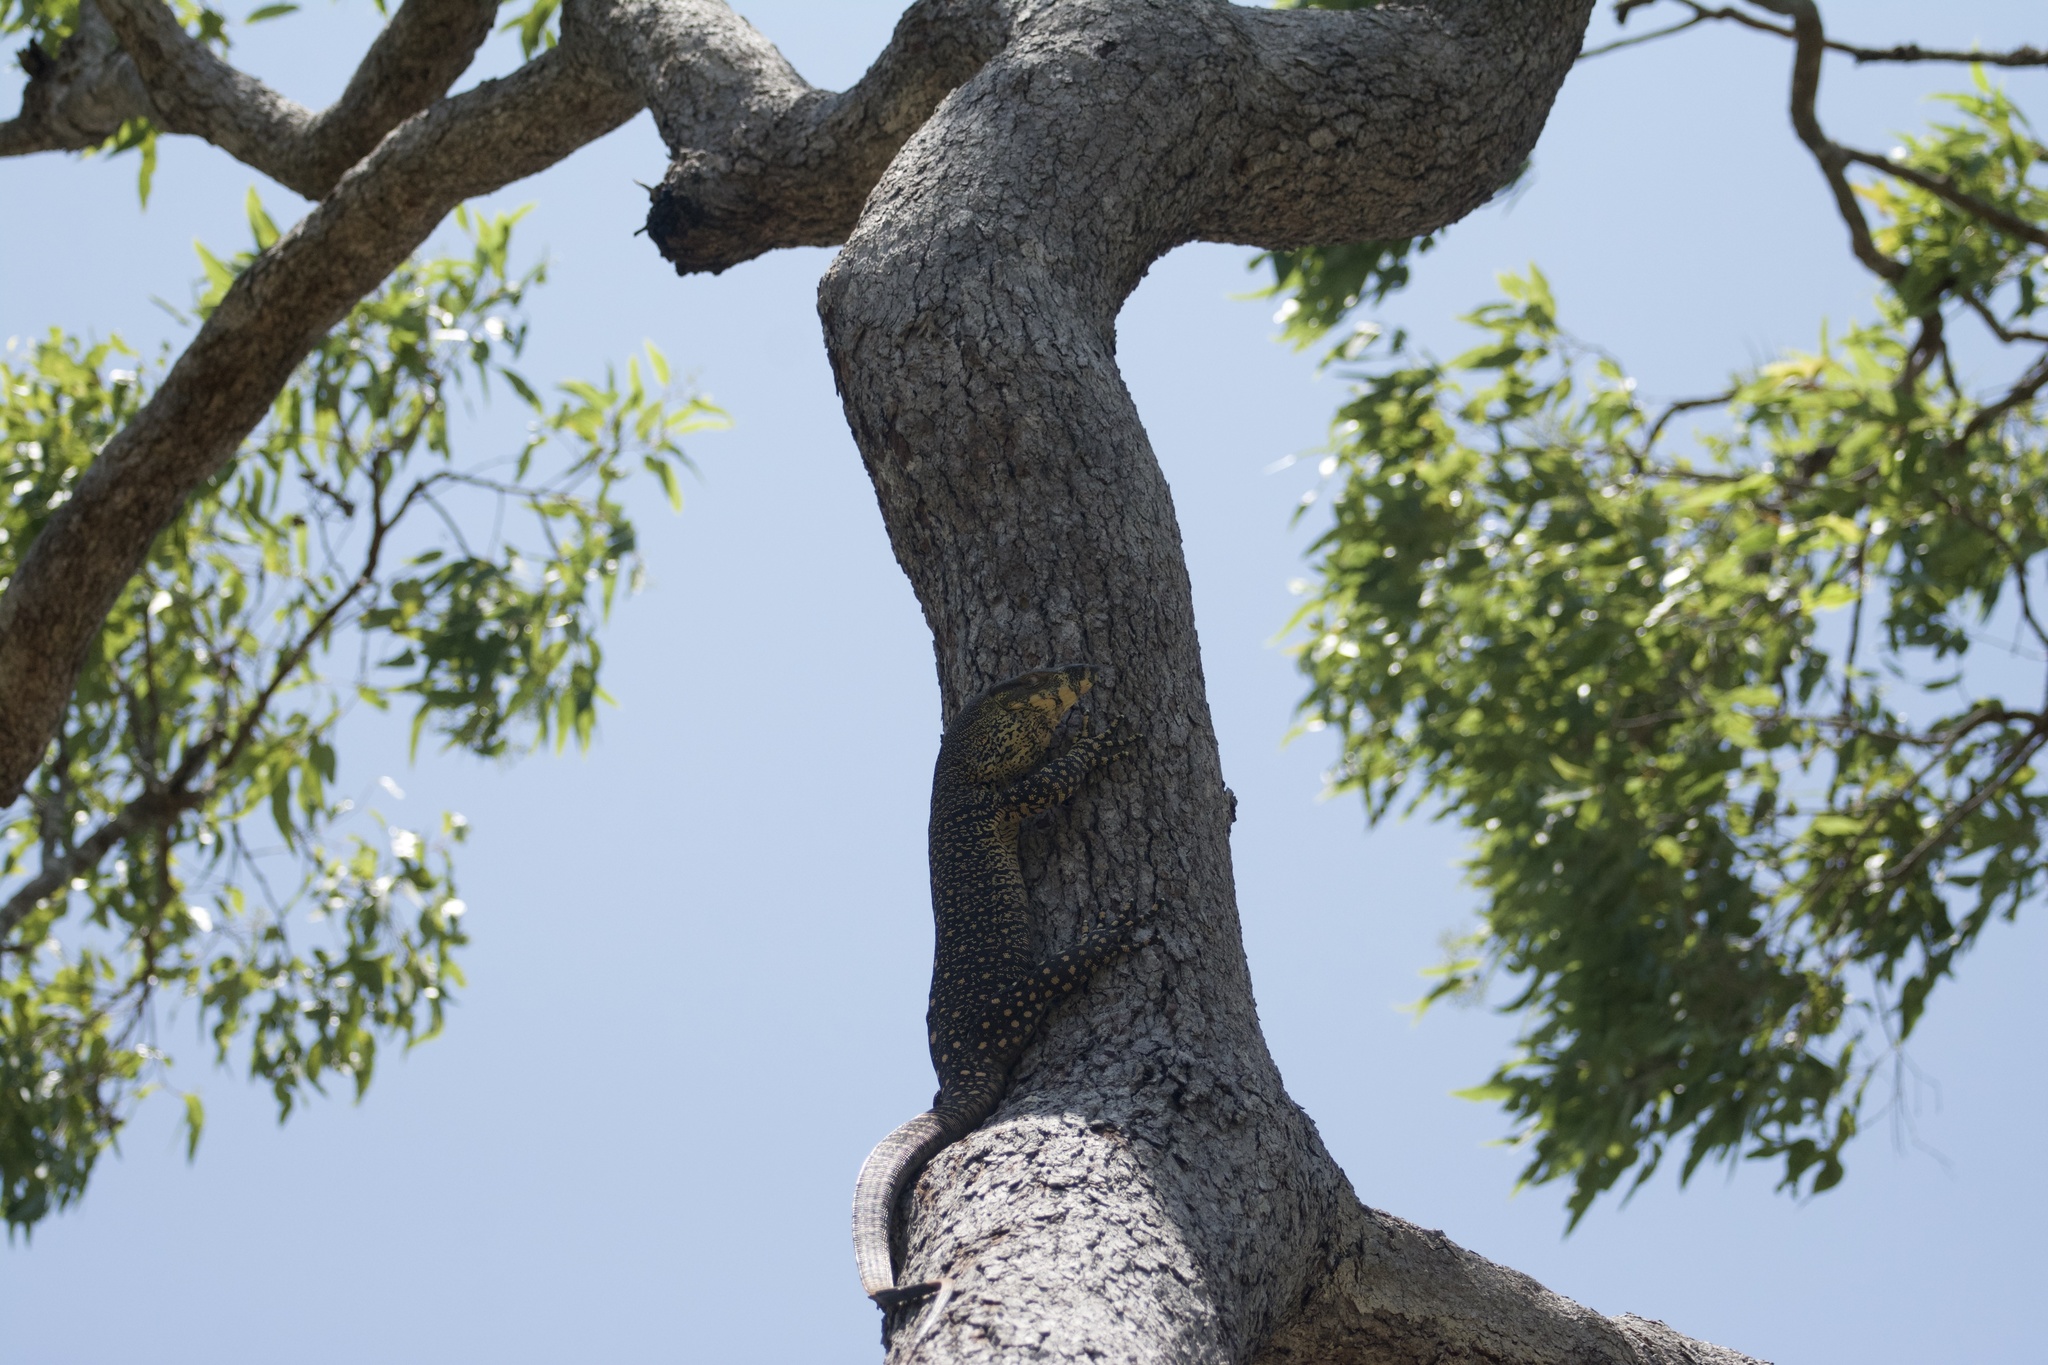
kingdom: Animalia
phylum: Chordata
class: Squamata
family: Varanidae
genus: Varanus
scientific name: Varanus varius
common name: Lace monitor
